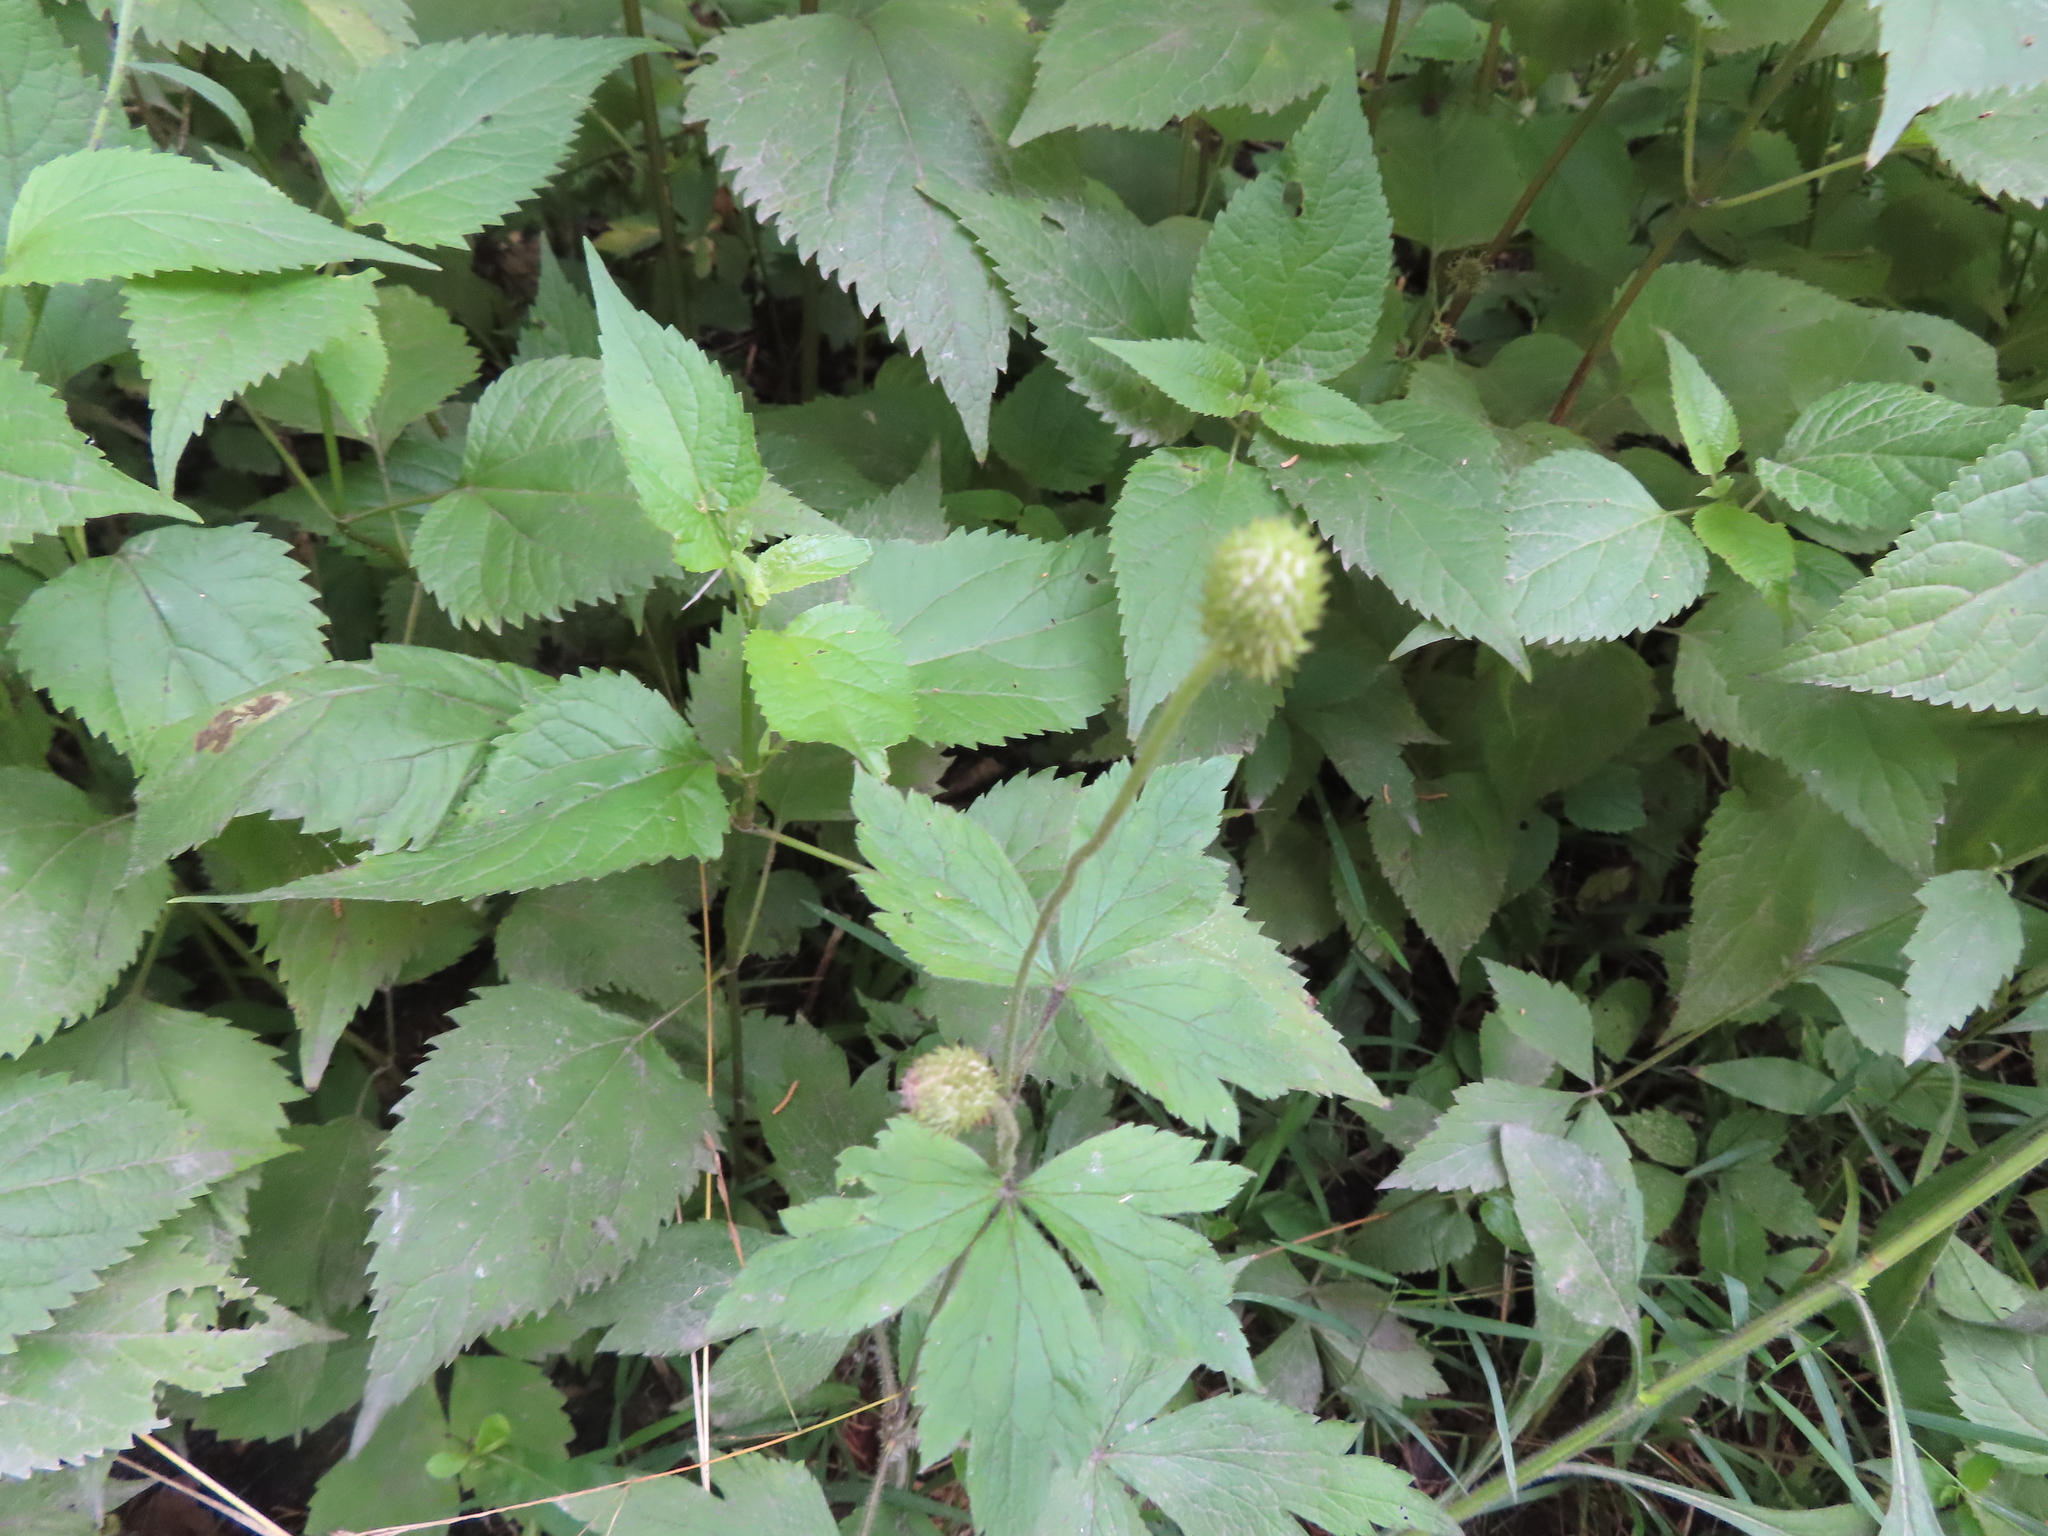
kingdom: Plantae
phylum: Tracheophyta
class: Magnoliopsida
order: Ranunculales
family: Ranunculaceae
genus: Anemone
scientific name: Anemone virginiana
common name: Tall anemone
